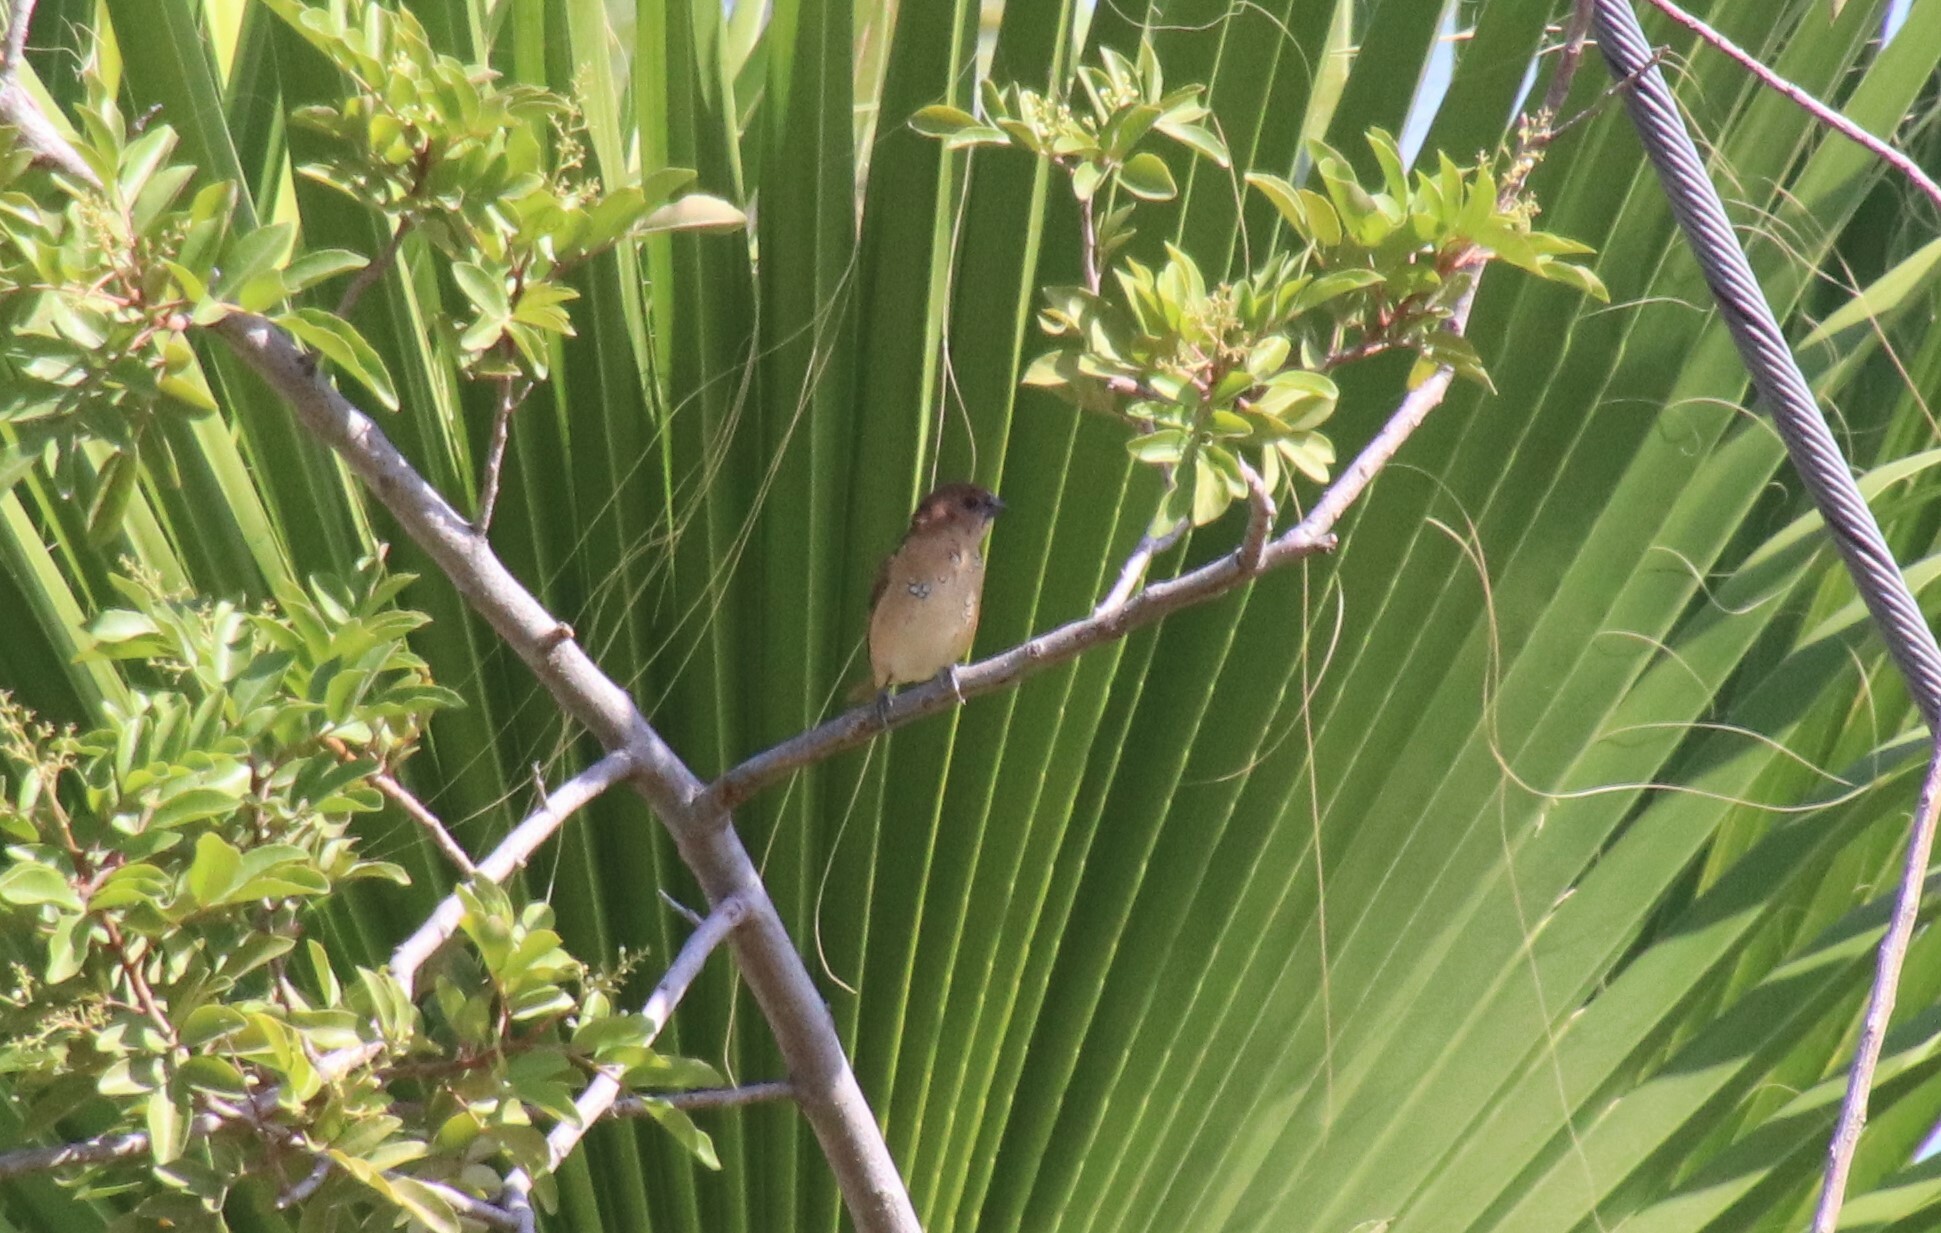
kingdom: Animalia
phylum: Chordata
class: Aves
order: Passeriformes
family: Estrildidae
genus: Lonchura
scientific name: Lonchura punctulata
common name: Scaly-breasted munia
